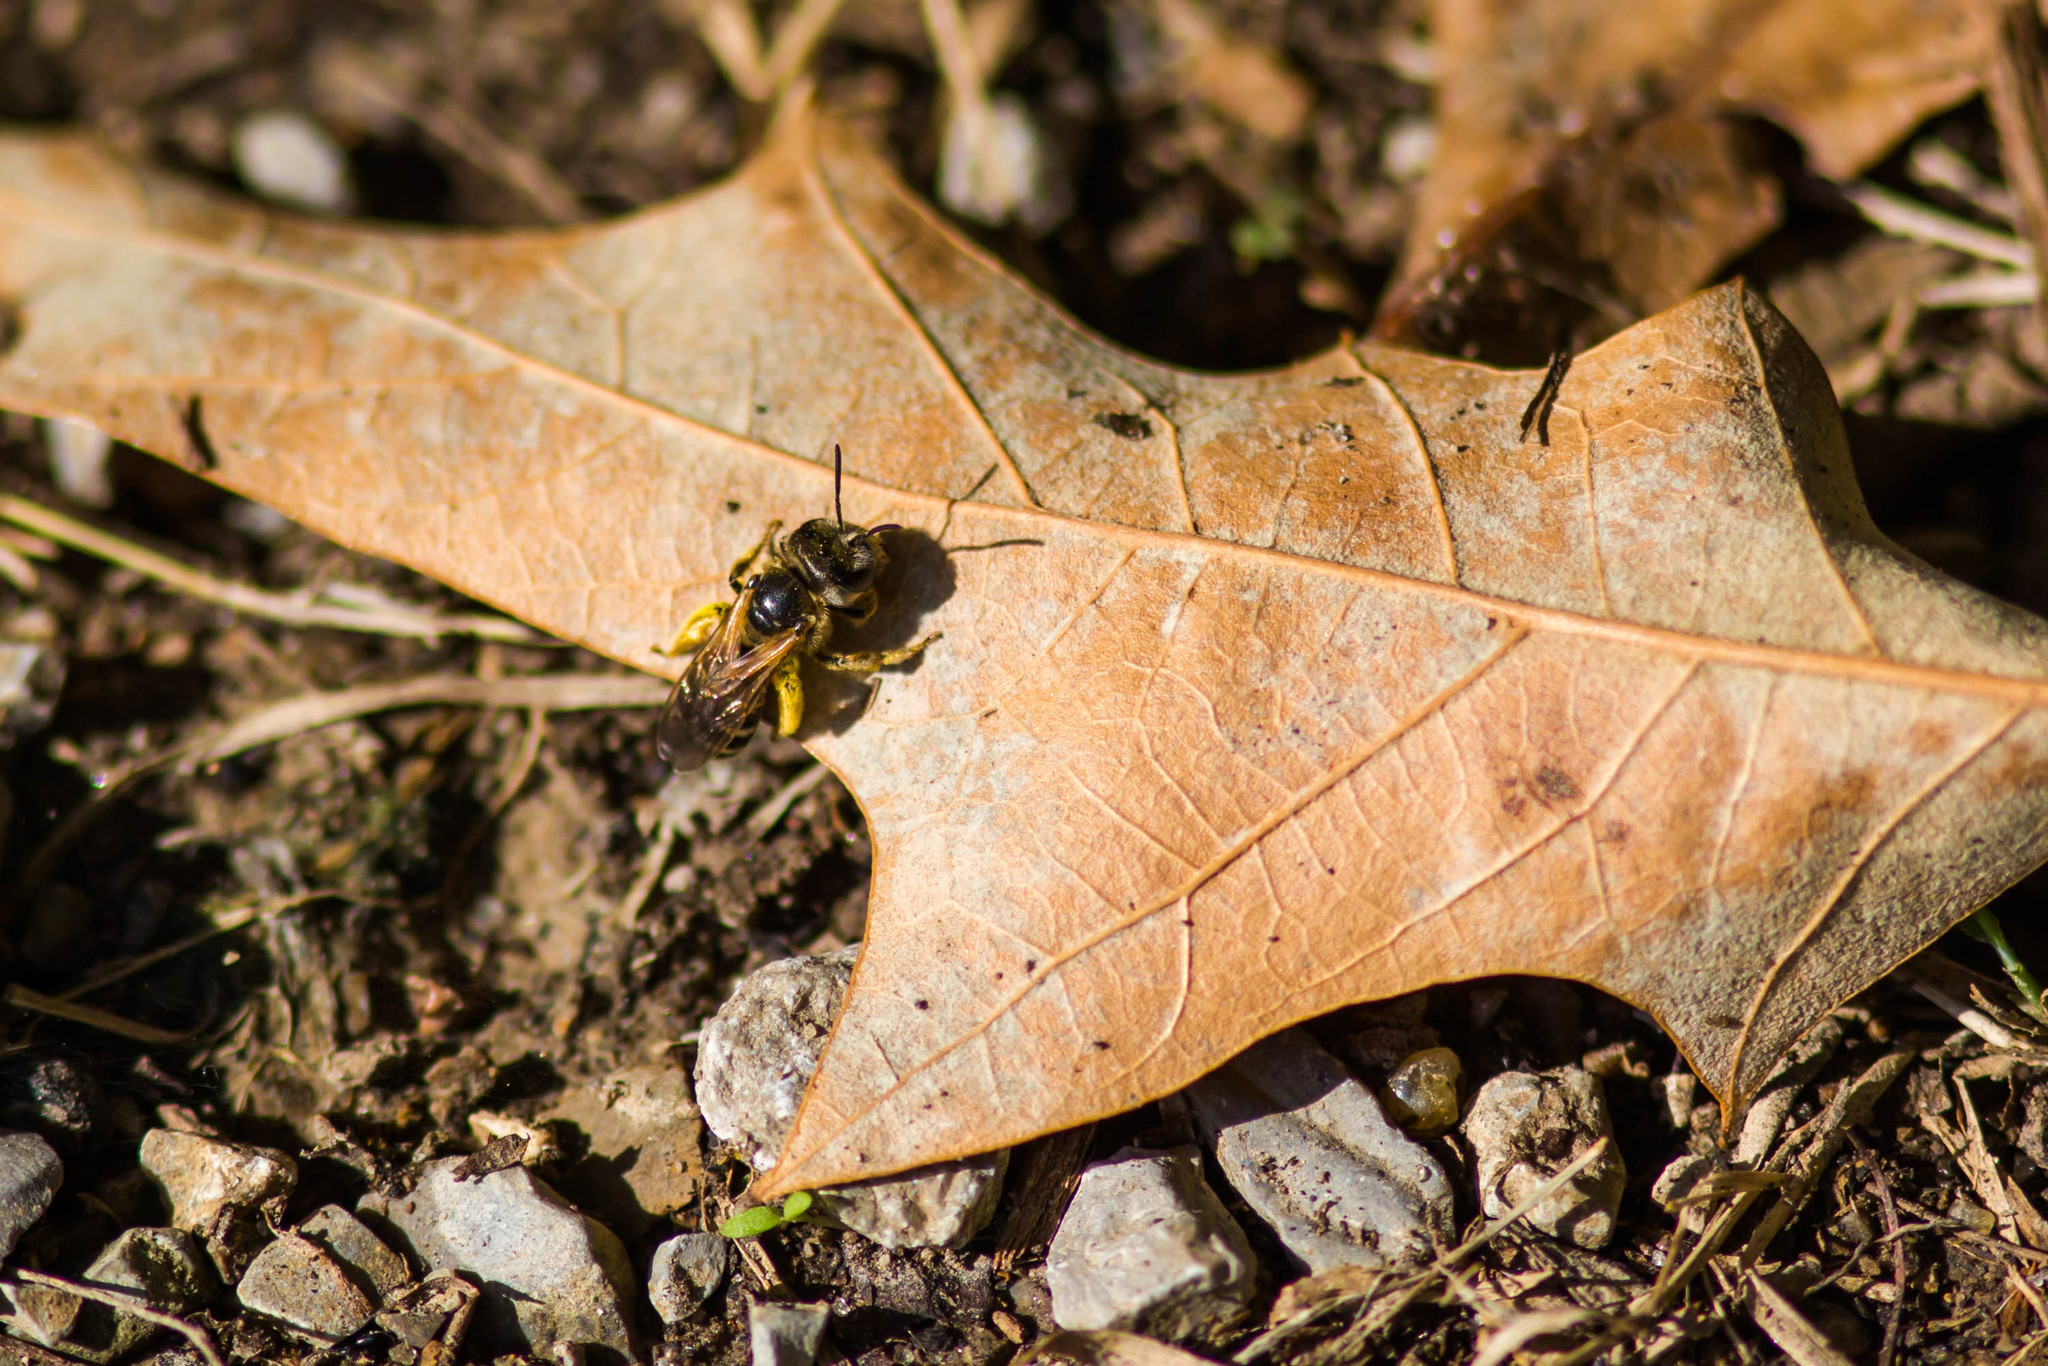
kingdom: Animalia
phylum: Arthropoda
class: Insecta
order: Hymenoptera
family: Halictidae
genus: Halictus
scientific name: Halictus ligatus
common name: Ligated furrow bee
